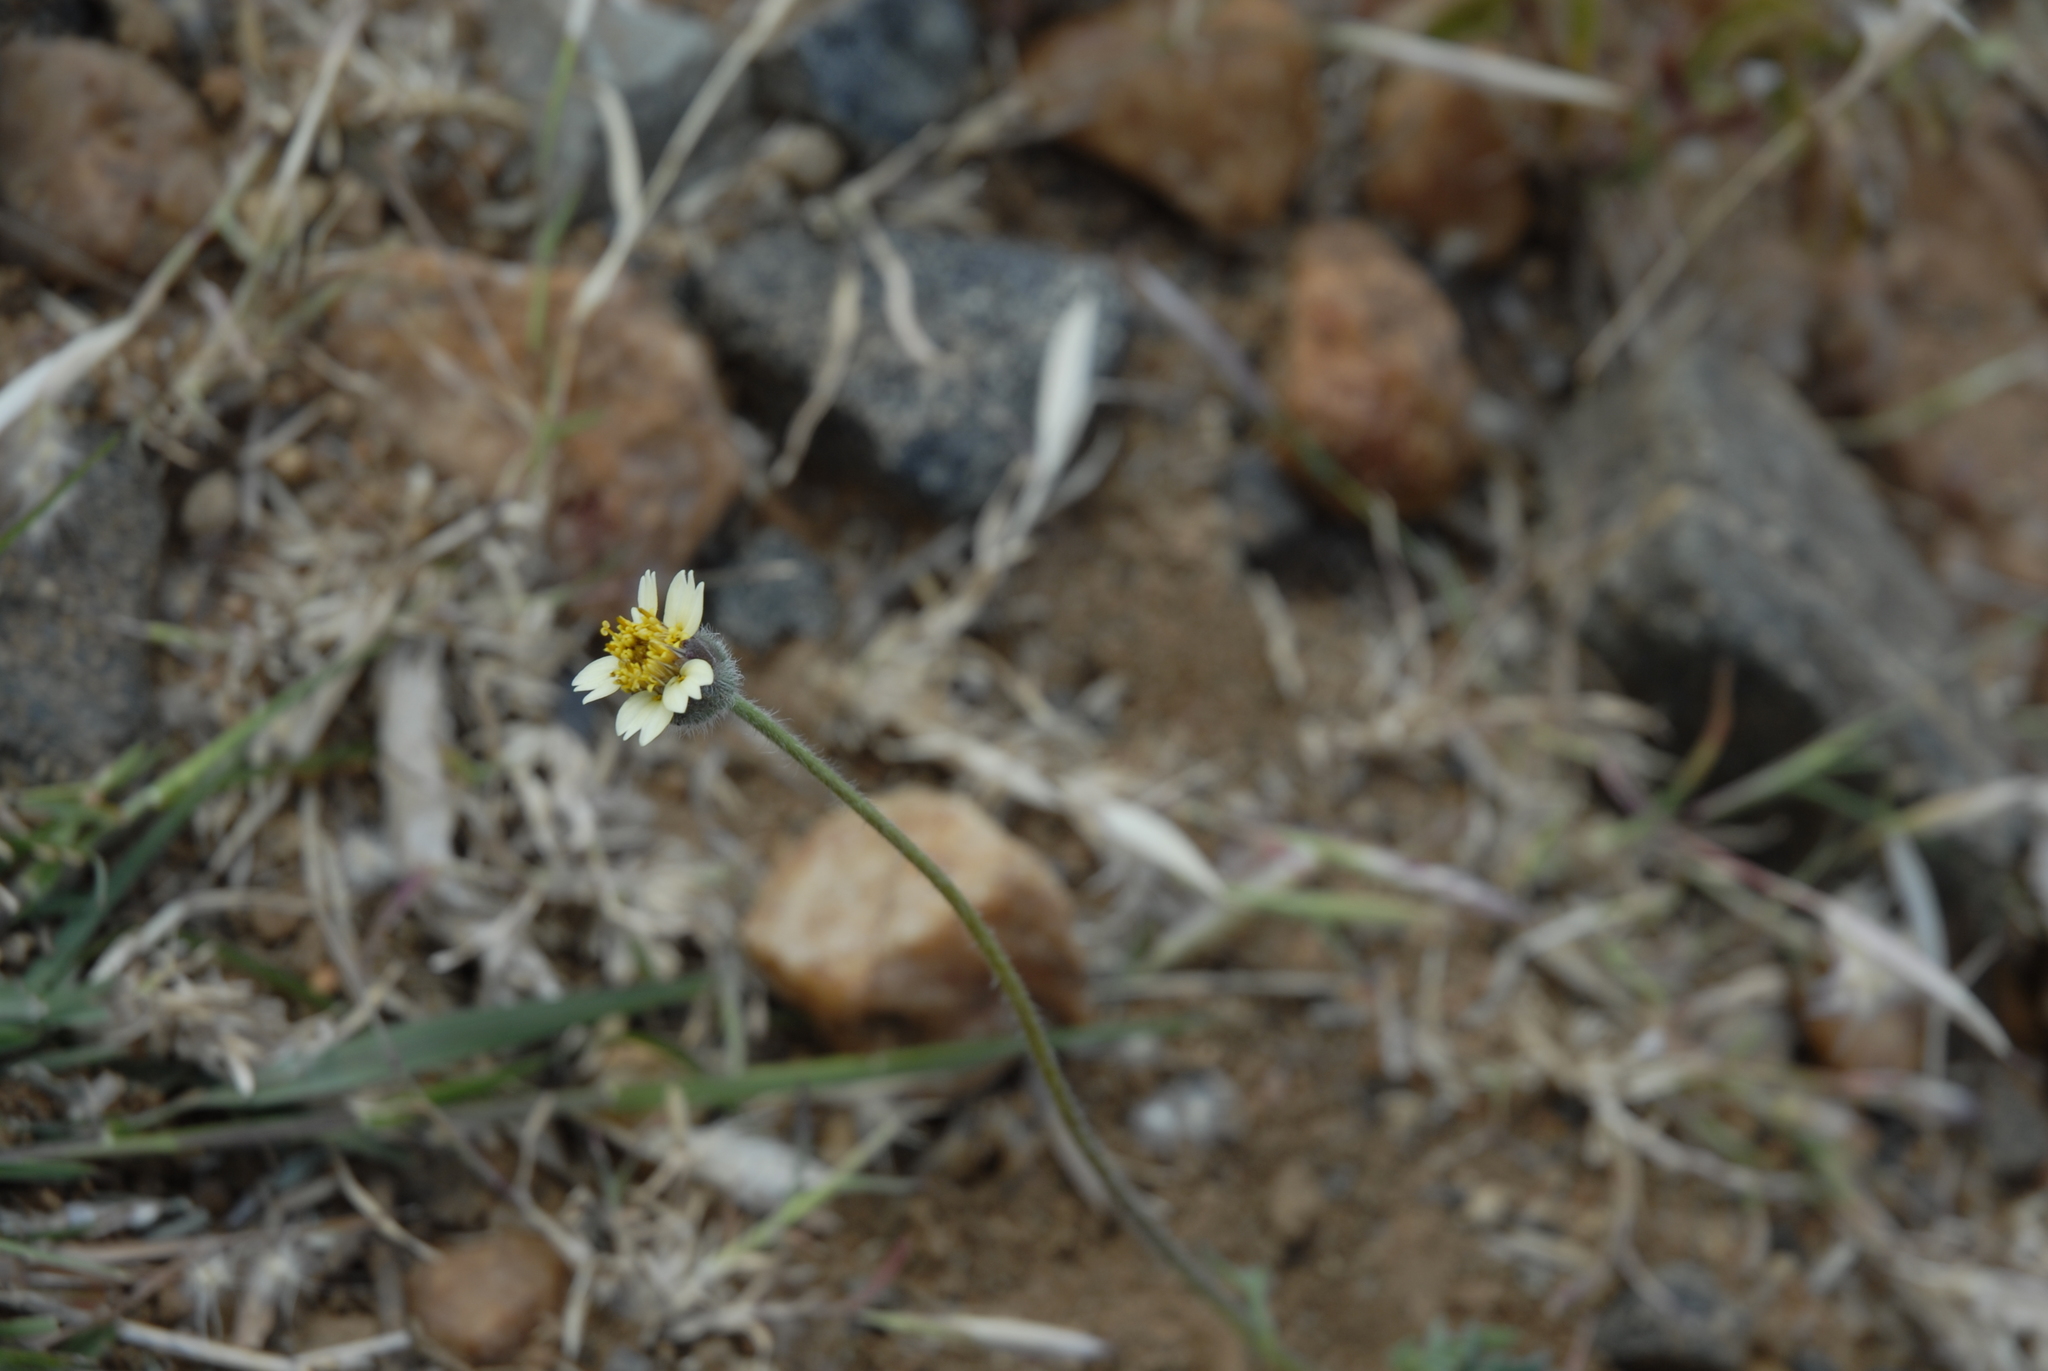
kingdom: Plantae
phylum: Tracheophyta
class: Magnoliopsida
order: Asterales
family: Asteraceae
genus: Tridax
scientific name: Tridax procumbens
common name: Coatbuttons
